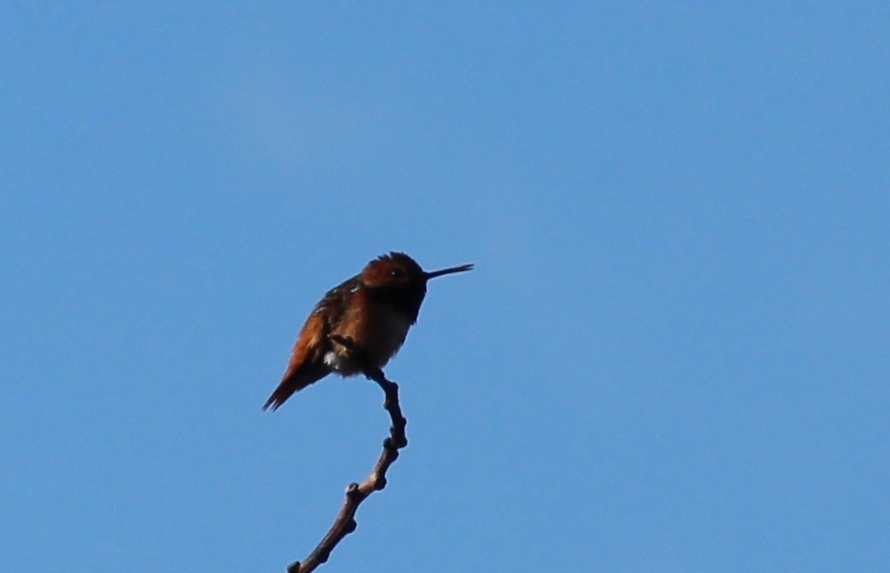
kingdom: Animalia
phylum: Chordata
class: Aves
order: Apodiformes
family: Trochilidae
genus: Selasphorus
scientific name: Selasphorus
